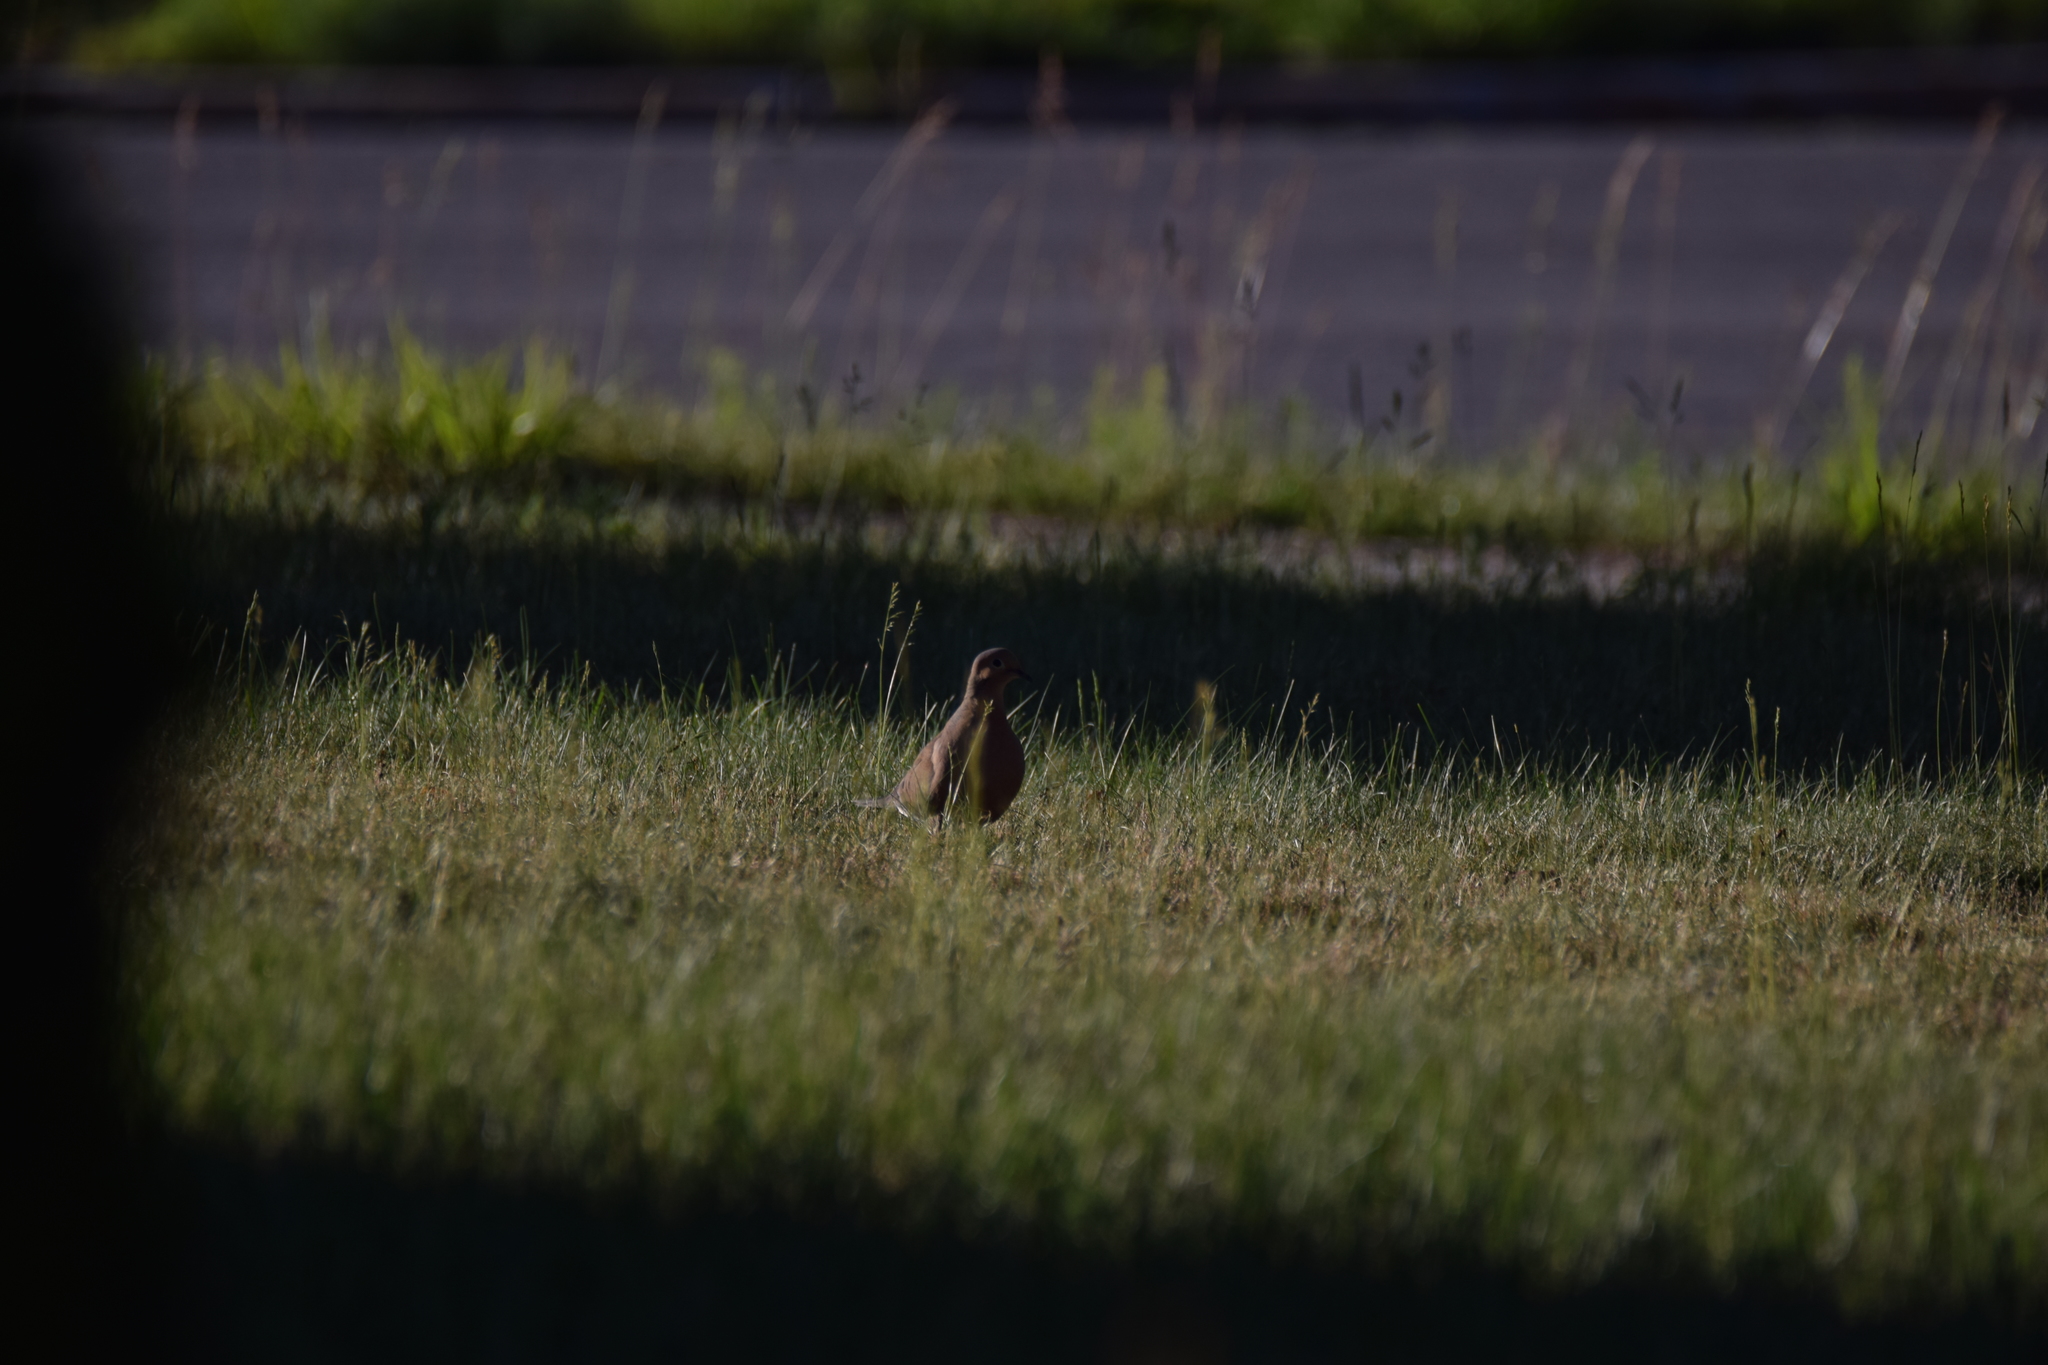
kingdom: Animalia
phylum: Chordata
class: Aves
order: Columbiformes
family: Columbidae
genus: Zenaida
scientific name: Zenaida macroura
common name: Mourning dove
